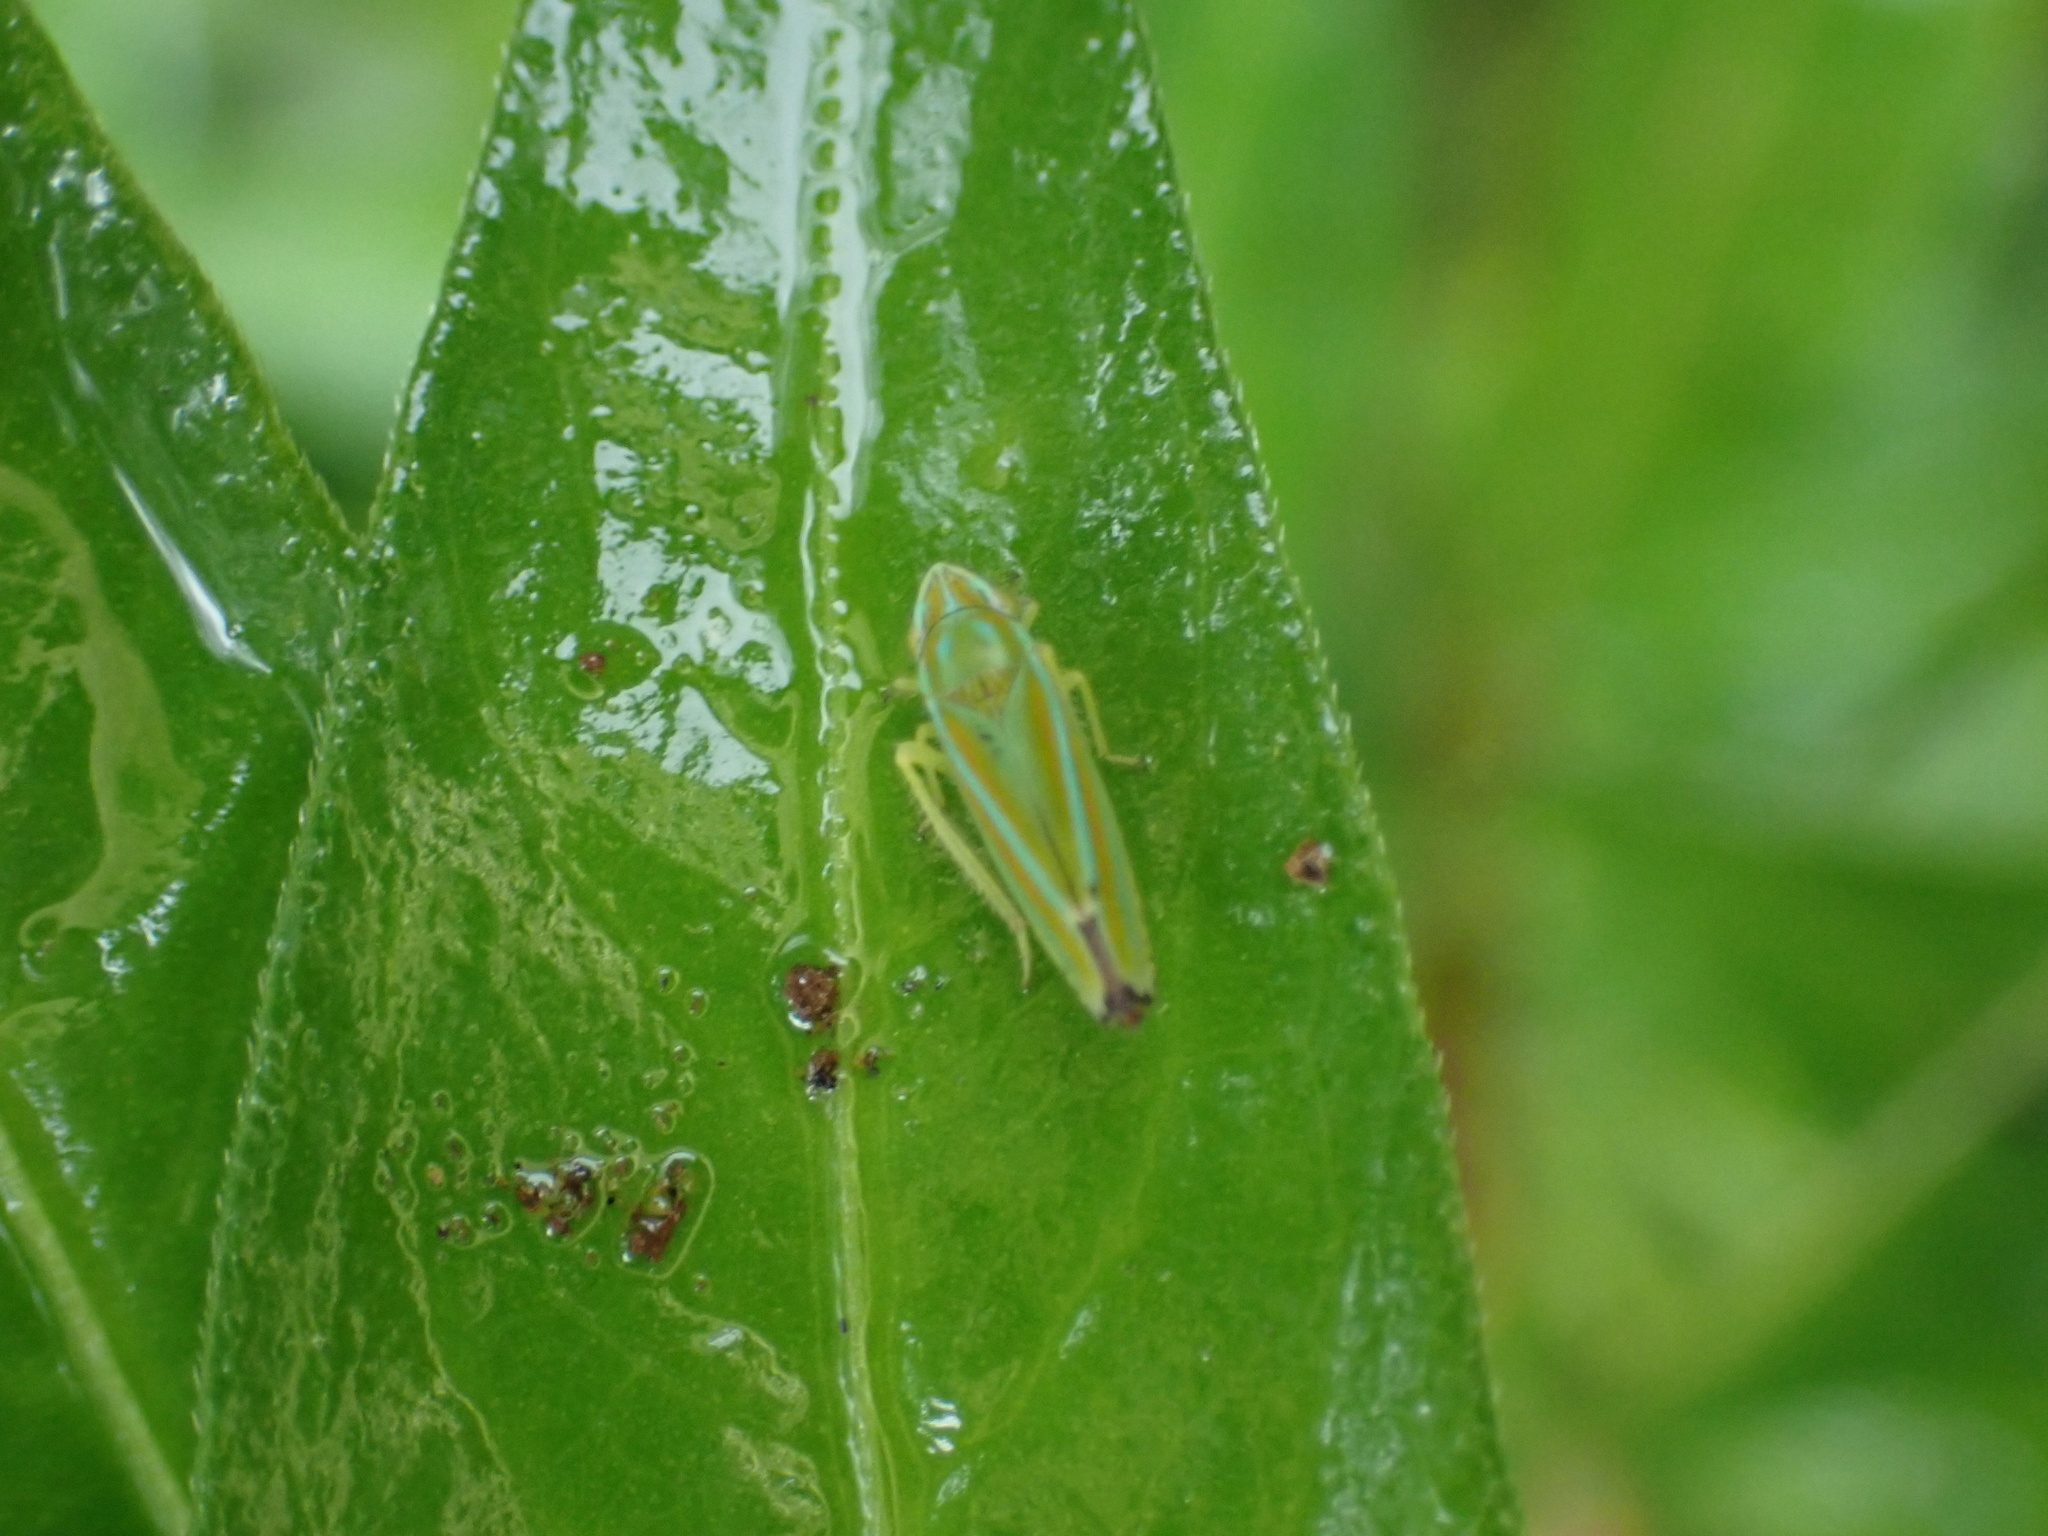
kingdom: Animalia
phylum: Arthropoda
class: Insecta
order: Hemiptera
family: Cicadellidae
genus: Graphocephala
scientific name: Graphocephala versuta
